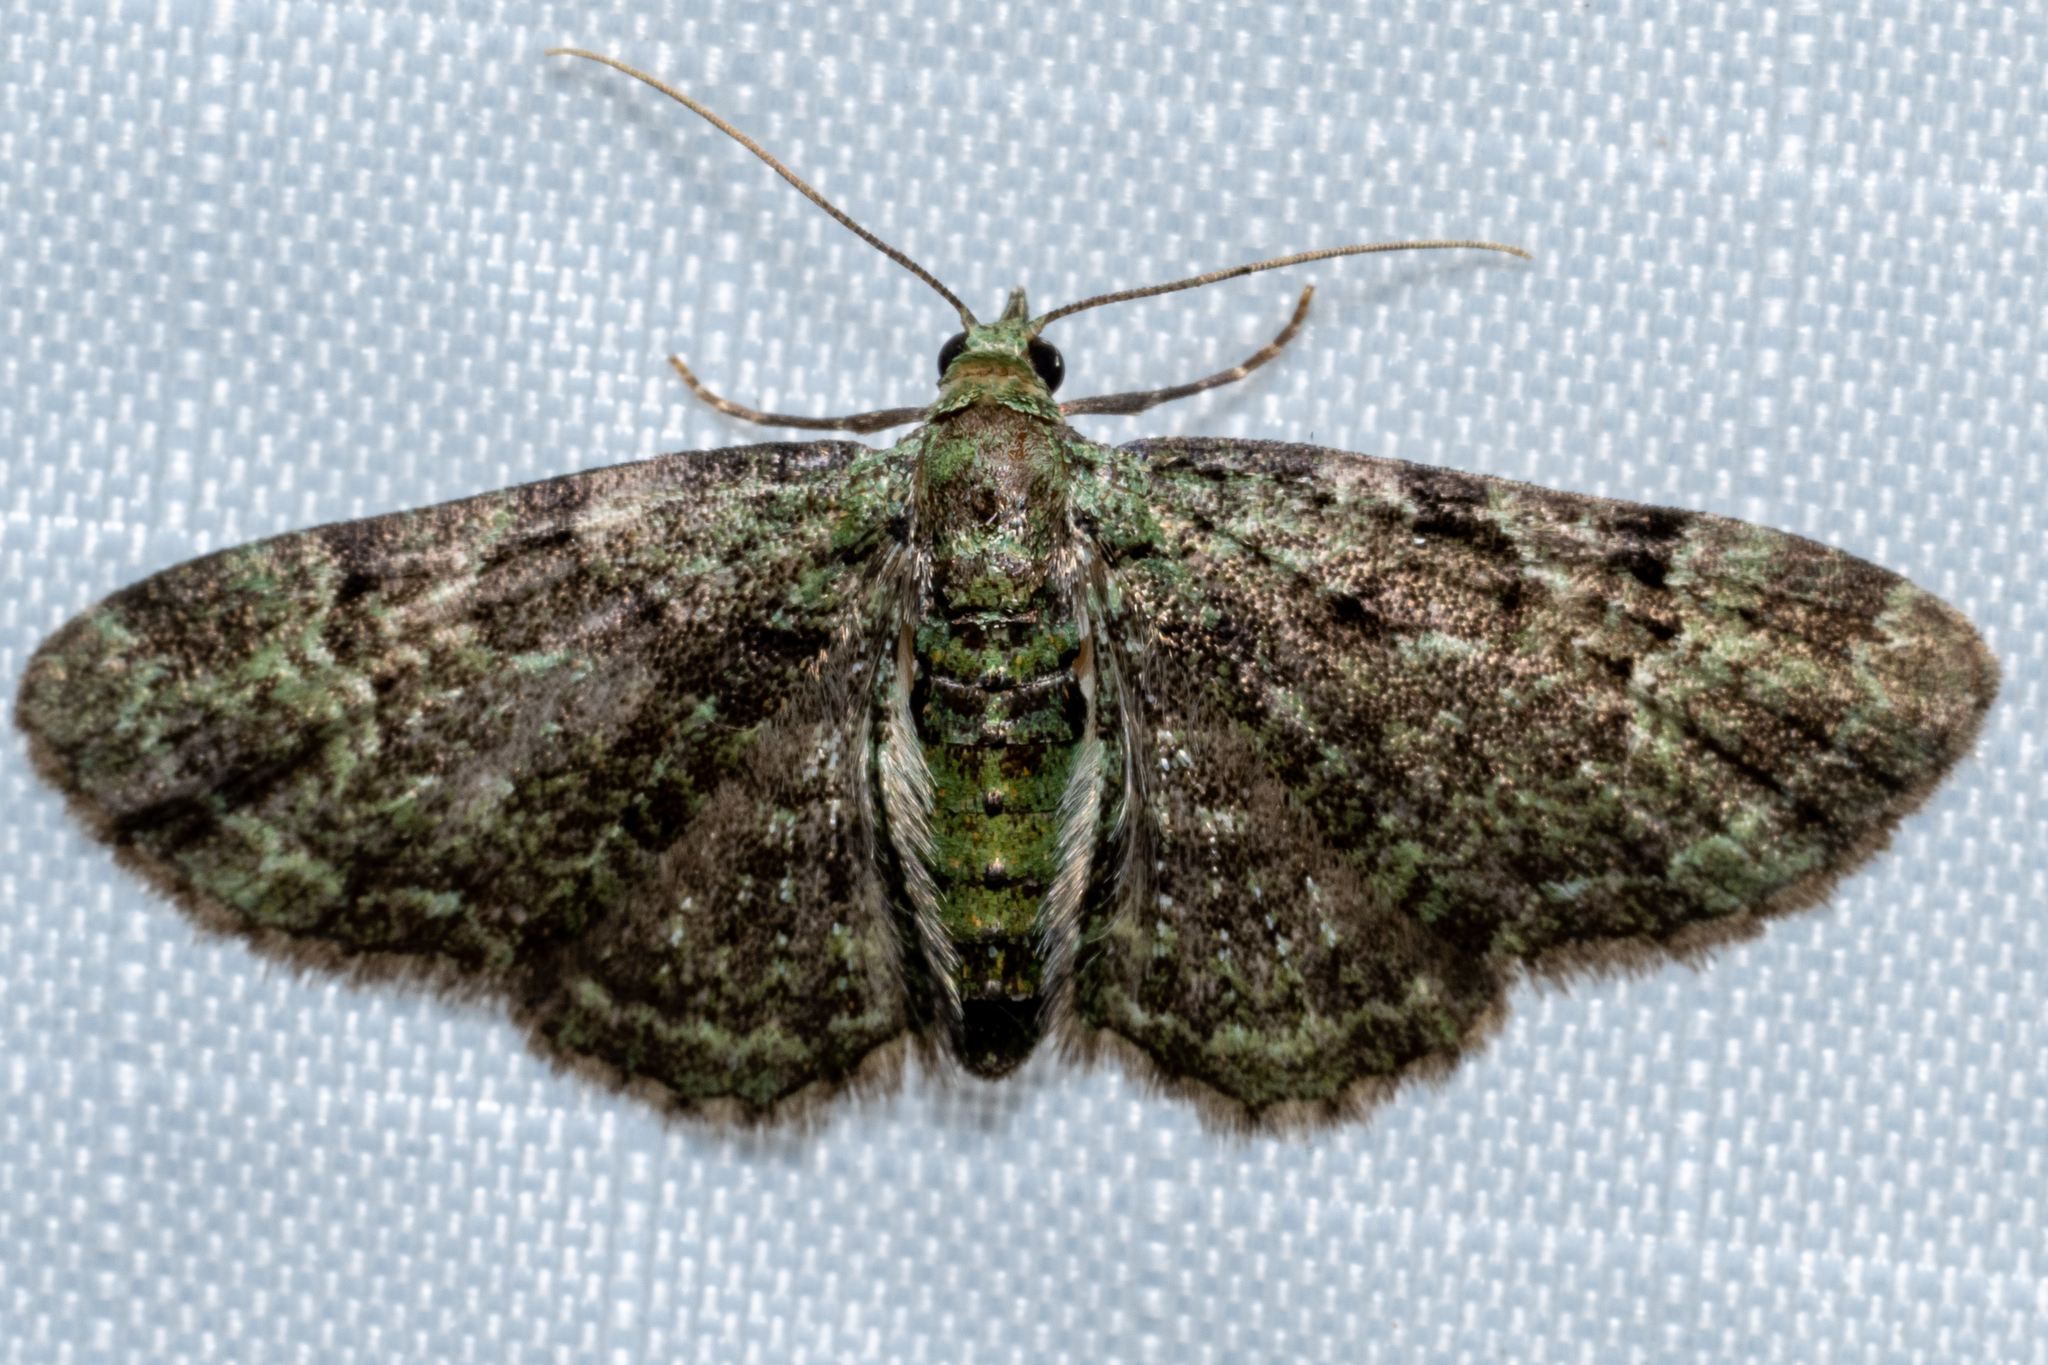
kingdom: Animalia
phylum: Arthropoda
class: Insecta
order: Lepidoptera
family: Geometridae
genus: Pasiphila
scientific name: Pasiphila rectangulata
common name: Green pug
